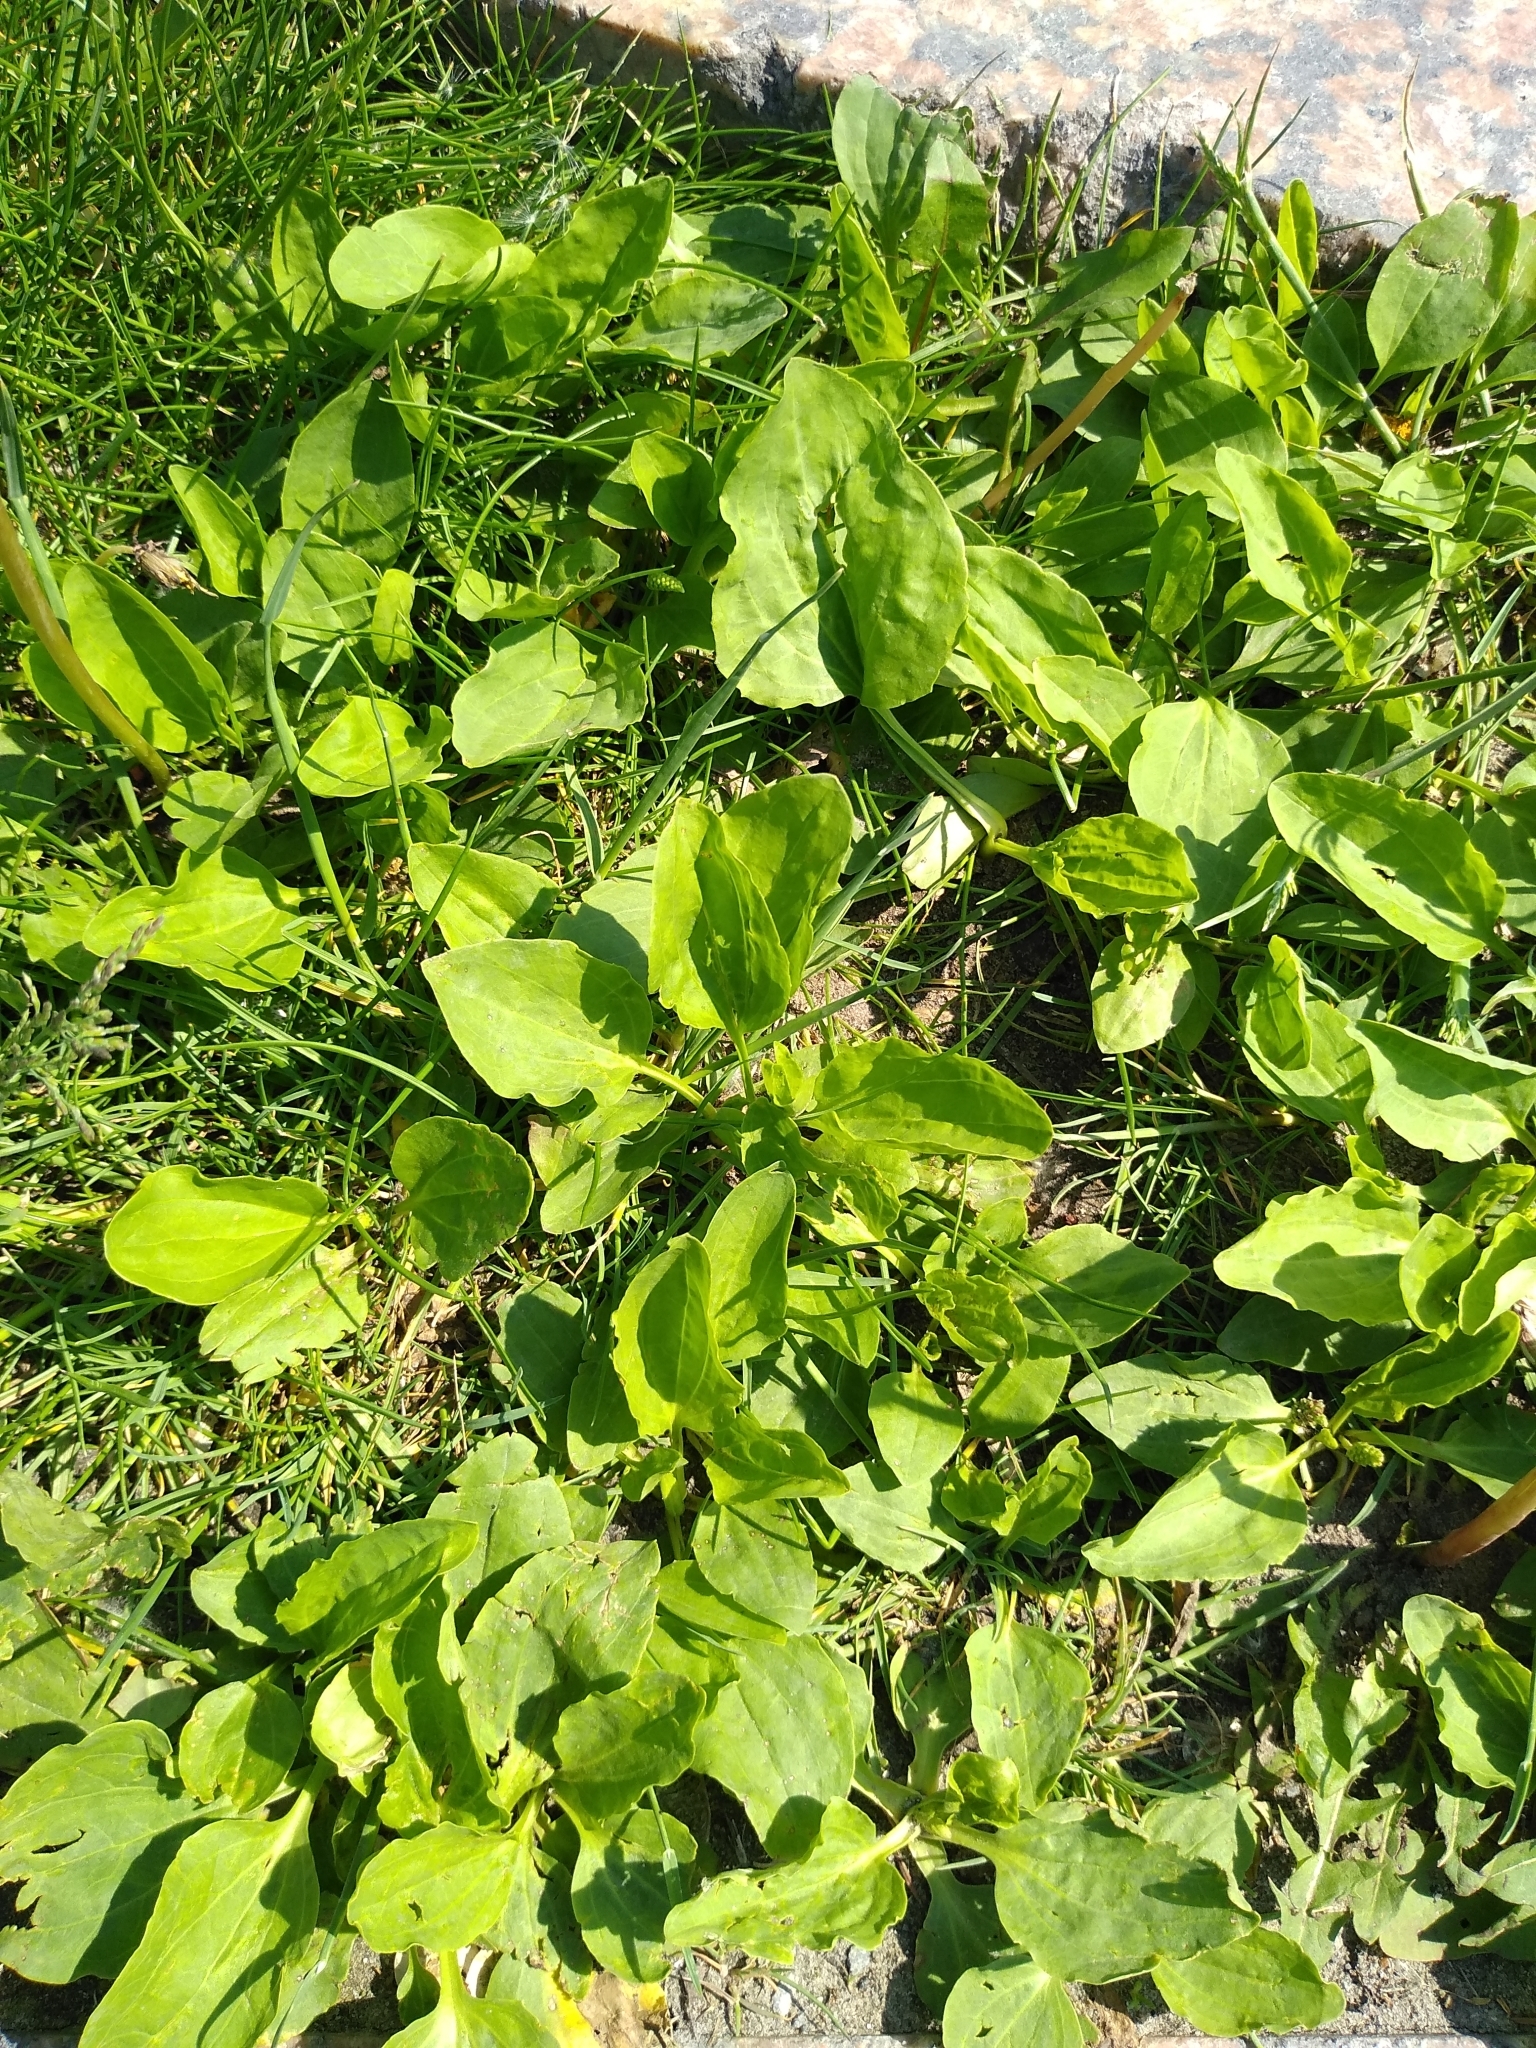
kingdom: Plantae
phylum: Tracheophyta
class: Magnoliopsida
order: Lamiales
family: Plantaginaceae
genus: Plantago
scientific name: Plantago major
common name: Common plantain
